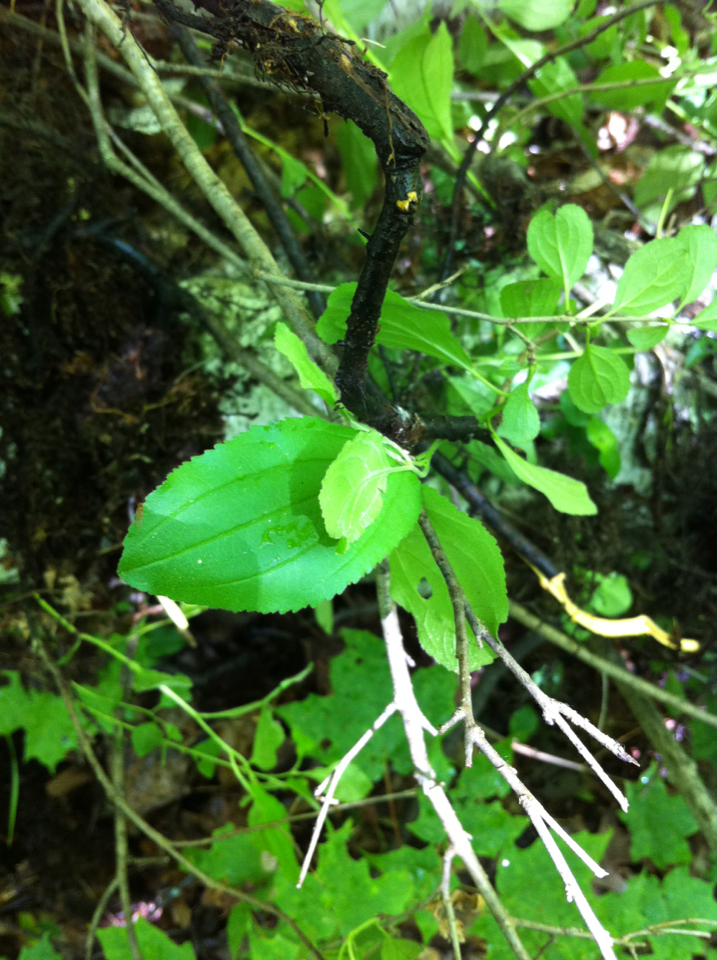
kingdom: Plantae
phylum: Tracheophyta
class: Magnoliopsida
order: Rosales
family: Rhamnaceae
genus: Rhamnus
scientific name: Rhamnus cathartica
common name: Common buckthorn
